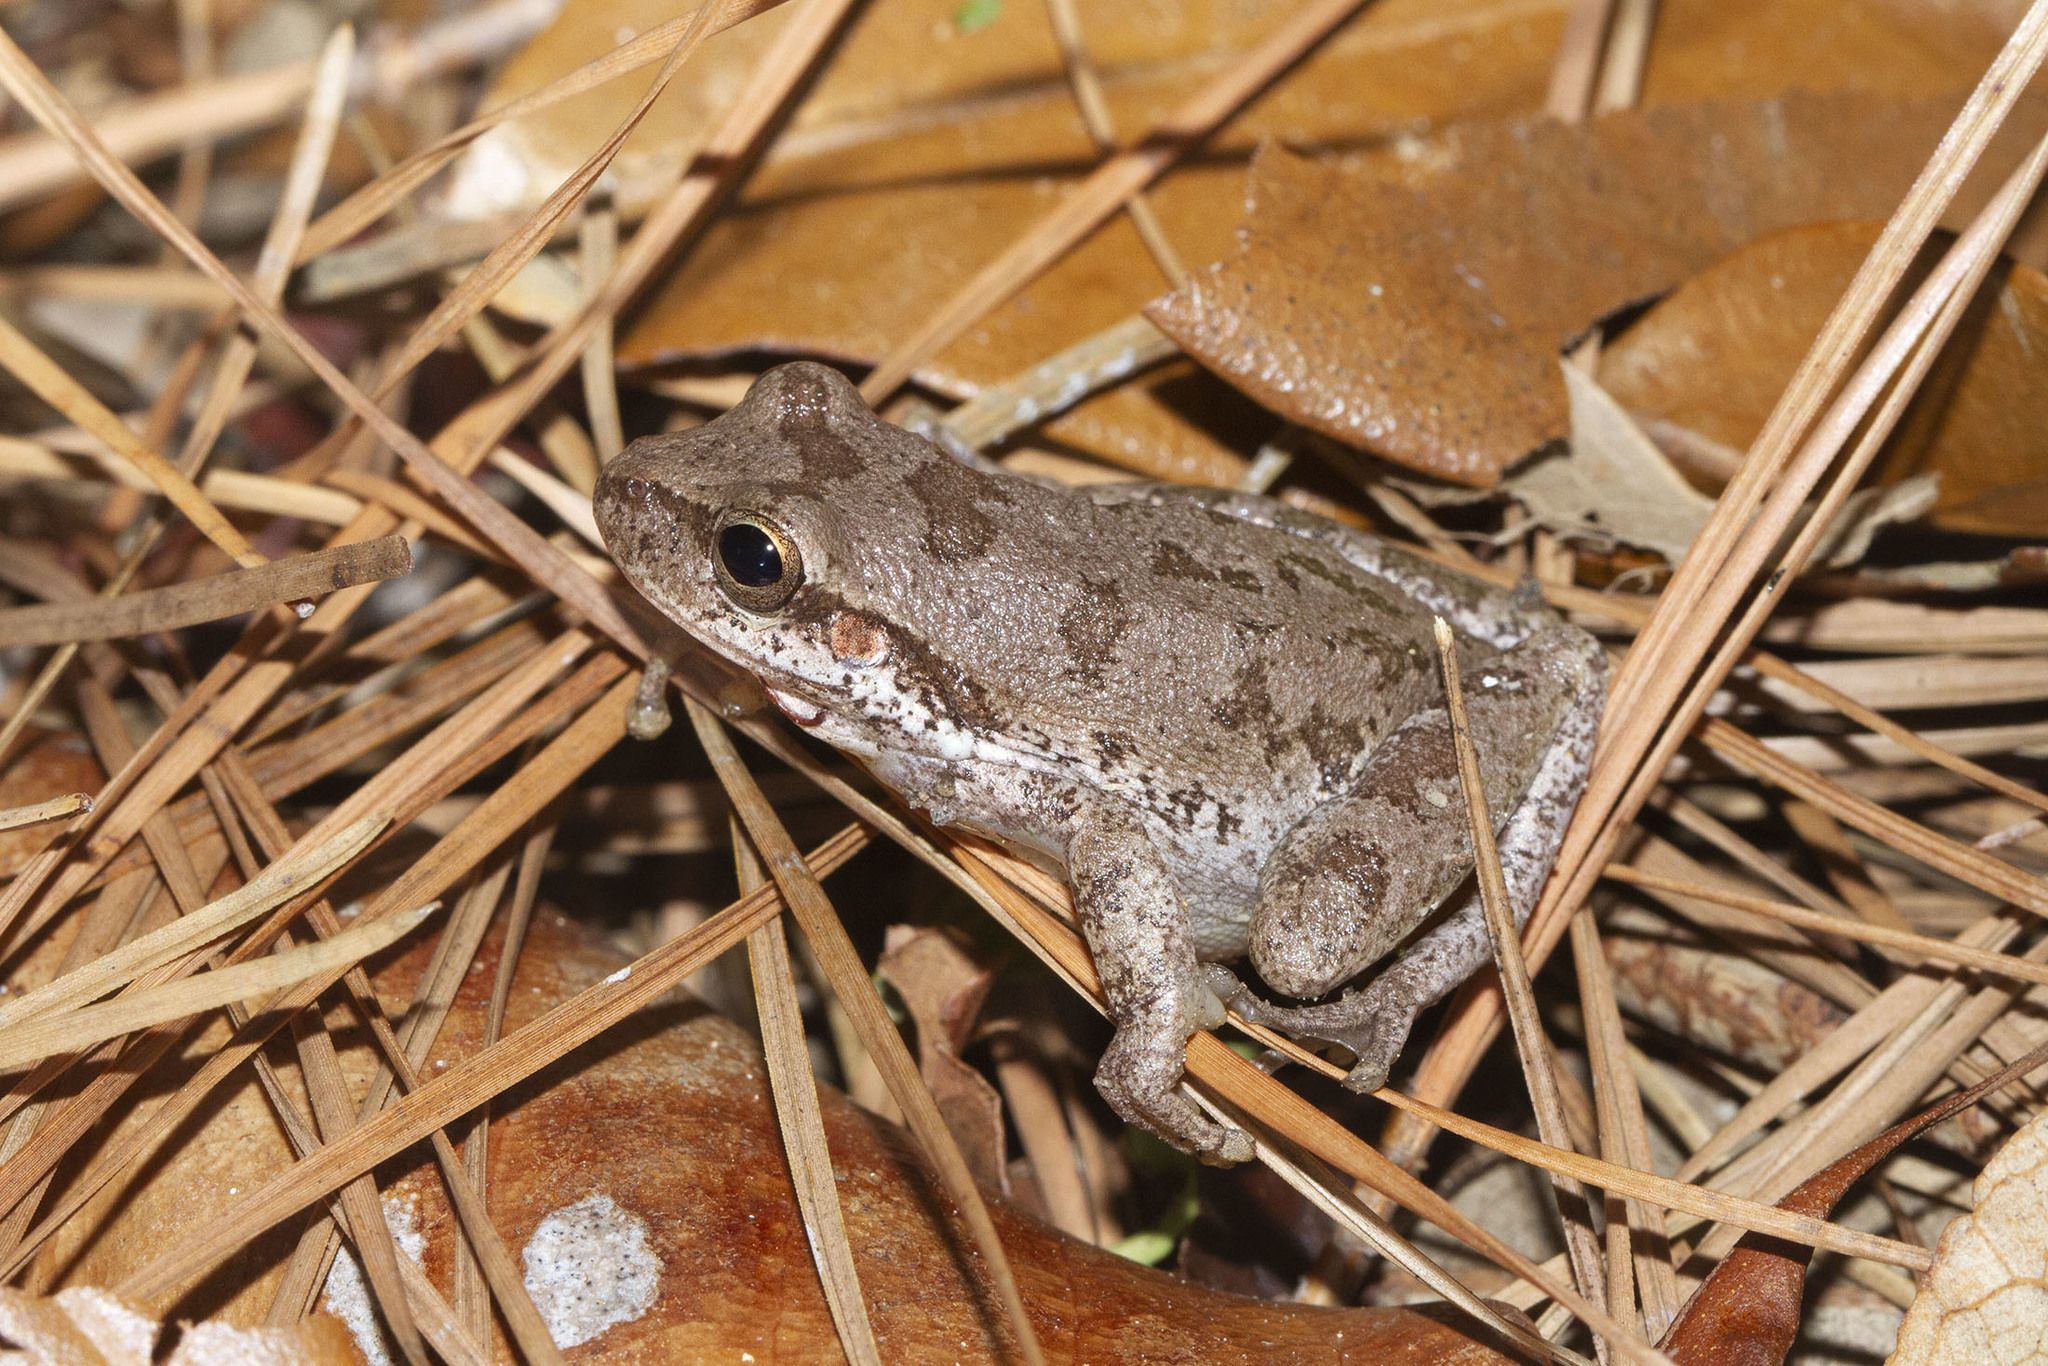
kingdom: Animalia
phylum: Chordata
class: Amphibia
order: Anura
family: Hylidae
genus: Dryophytes
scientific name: Dryophytes squirellus
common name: Squirrel treefrog
